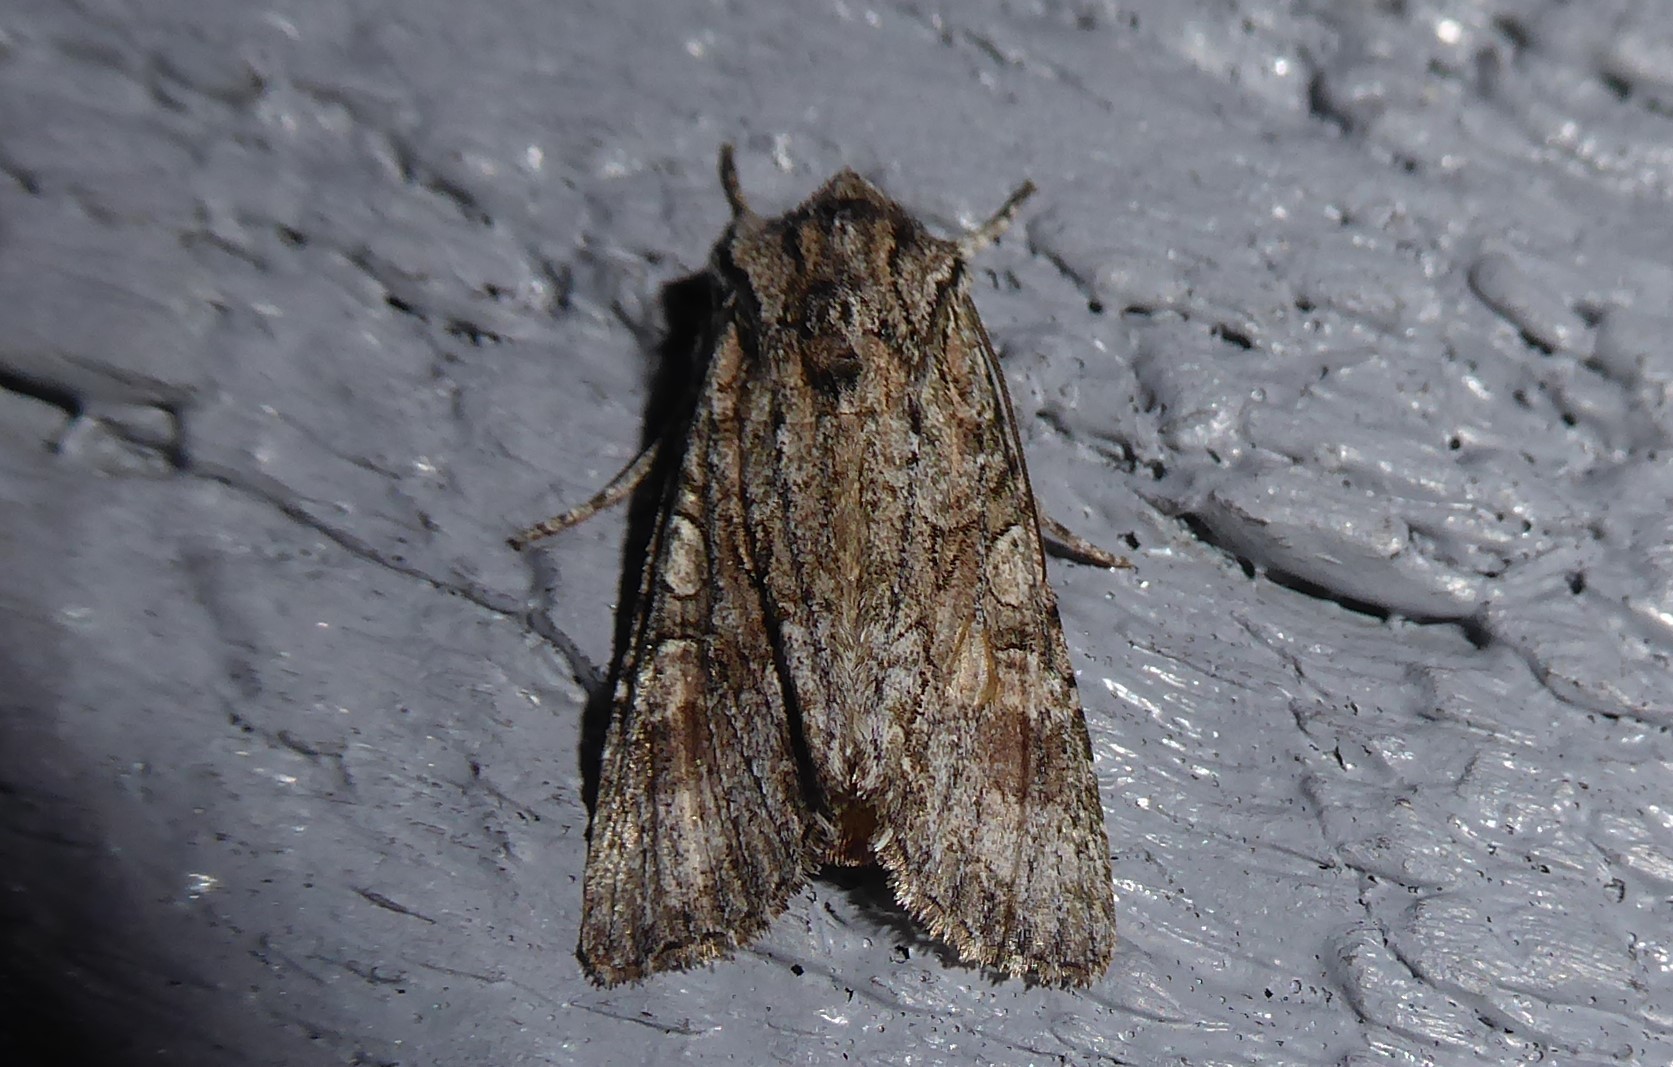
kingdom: Animalia
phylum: Arthropoda
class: Insecta
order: Lepidoptera
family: Noctuidae
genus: Ichneutica
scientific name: Ichneutica mutans
